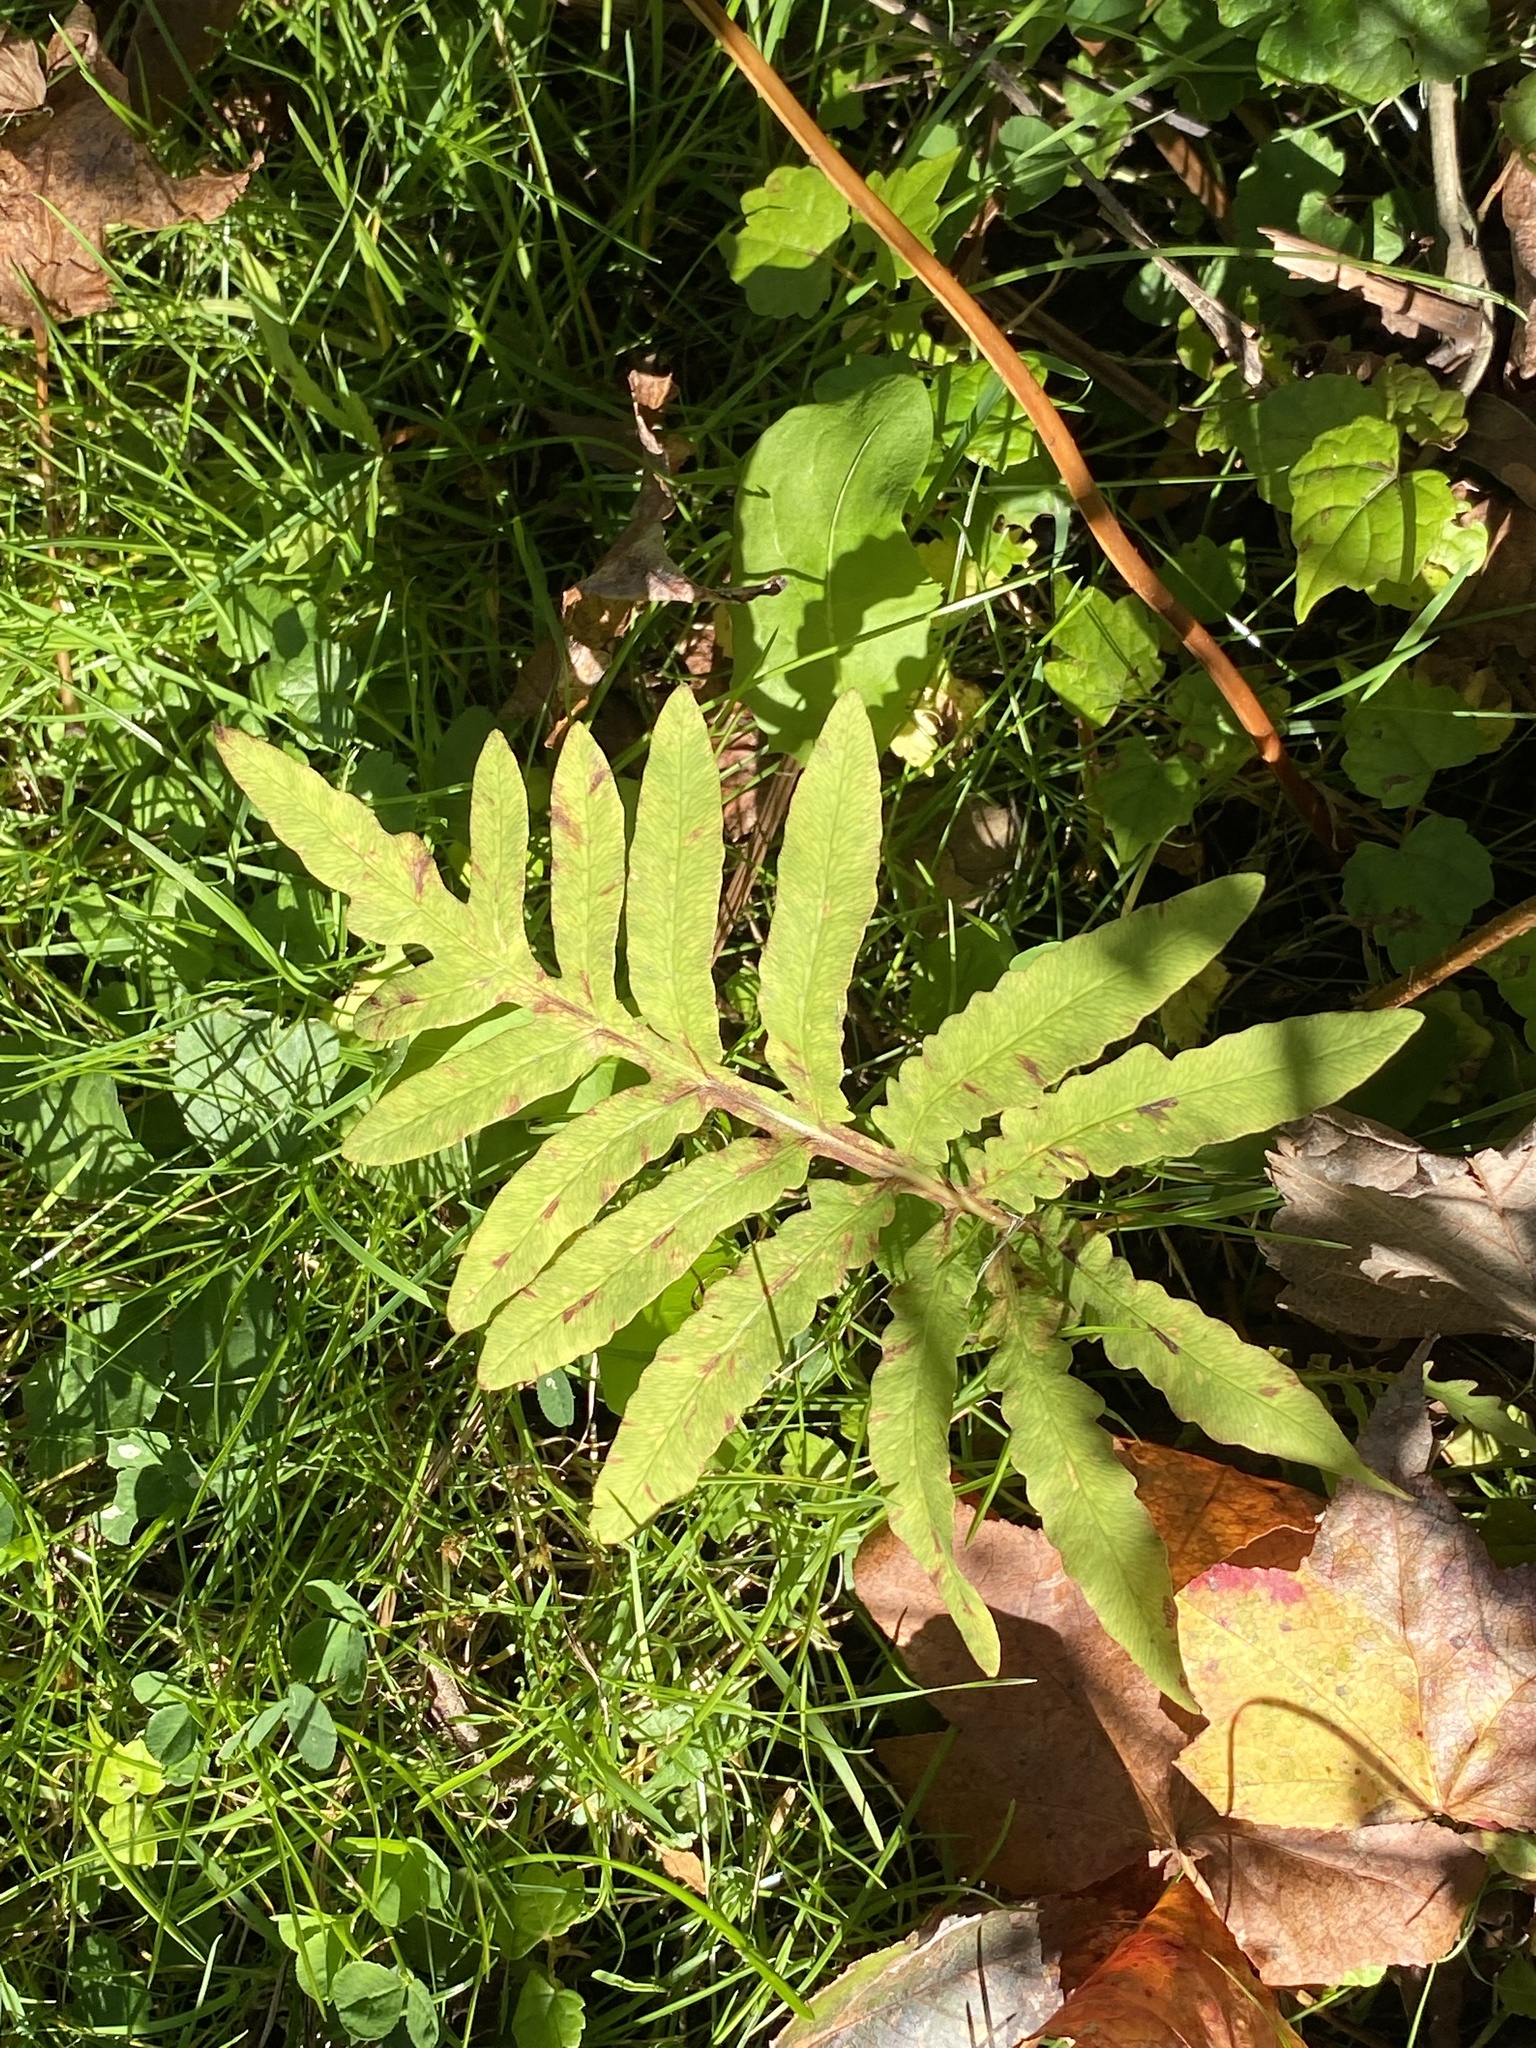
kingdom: Plantae
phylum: Tracheophyta
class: Polypodiopsida
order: Polypodiales
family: Onocleaceae
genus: Onoclea
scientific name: Onoclea sensibilis
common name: Sensitive fern
